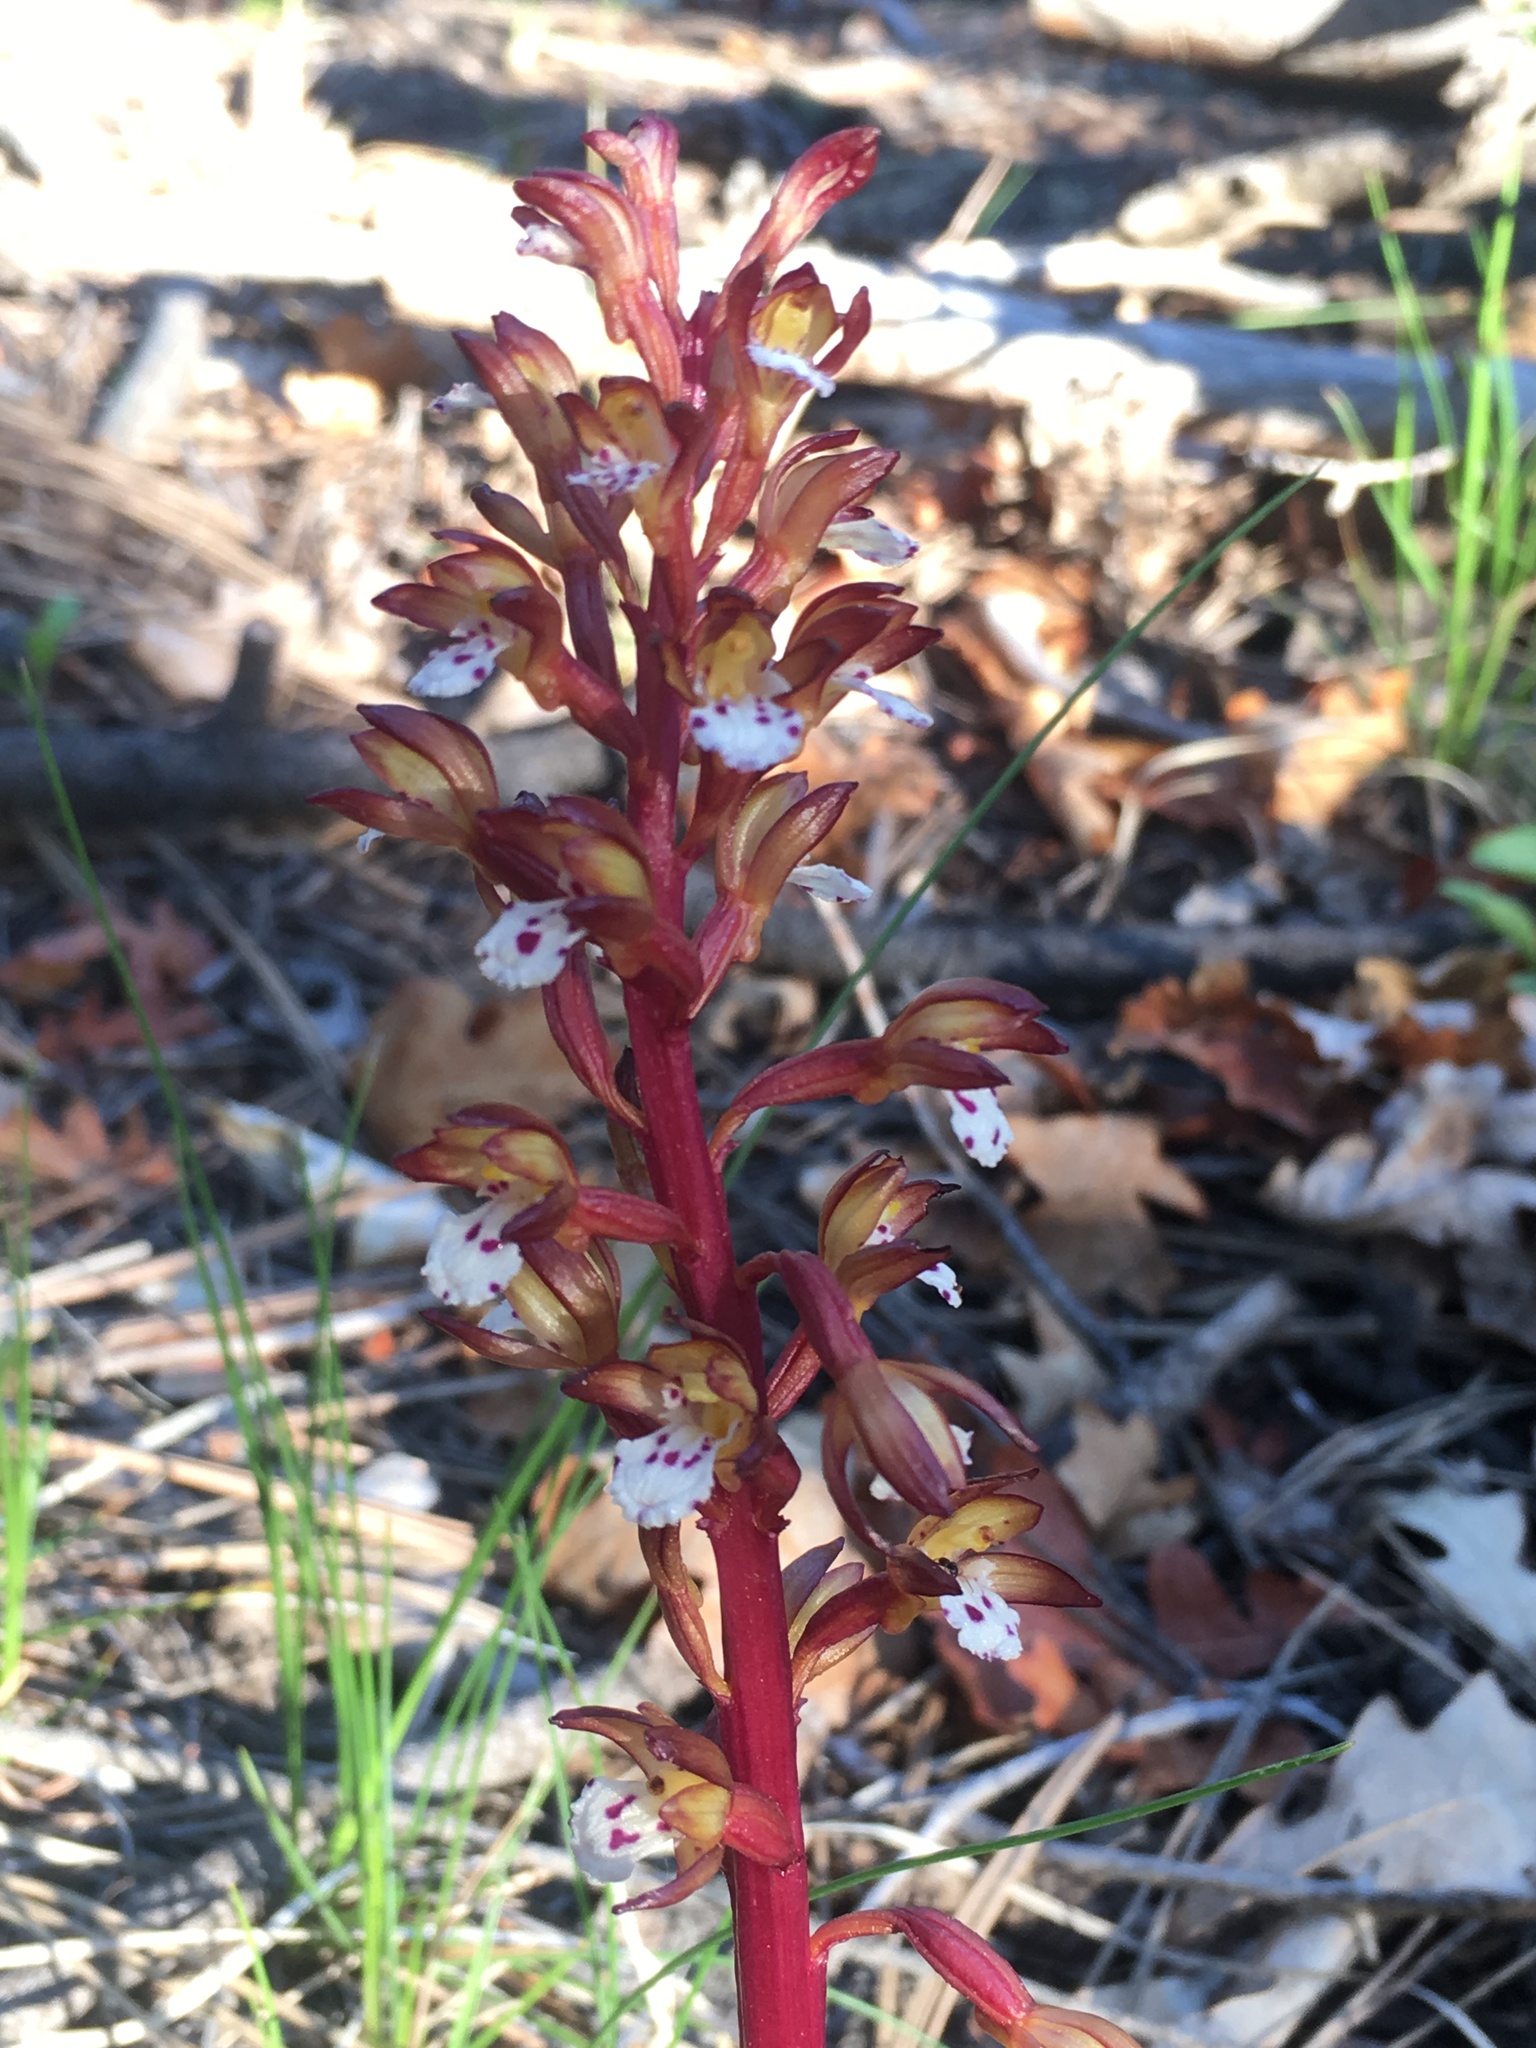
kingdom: Plantae
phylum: Tracheophyta
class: Liliopsida
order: Asparagales
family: Orchidaceae
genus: Corallorhiza
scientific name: Corallorhiza maculata
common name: Spotted coralroot
